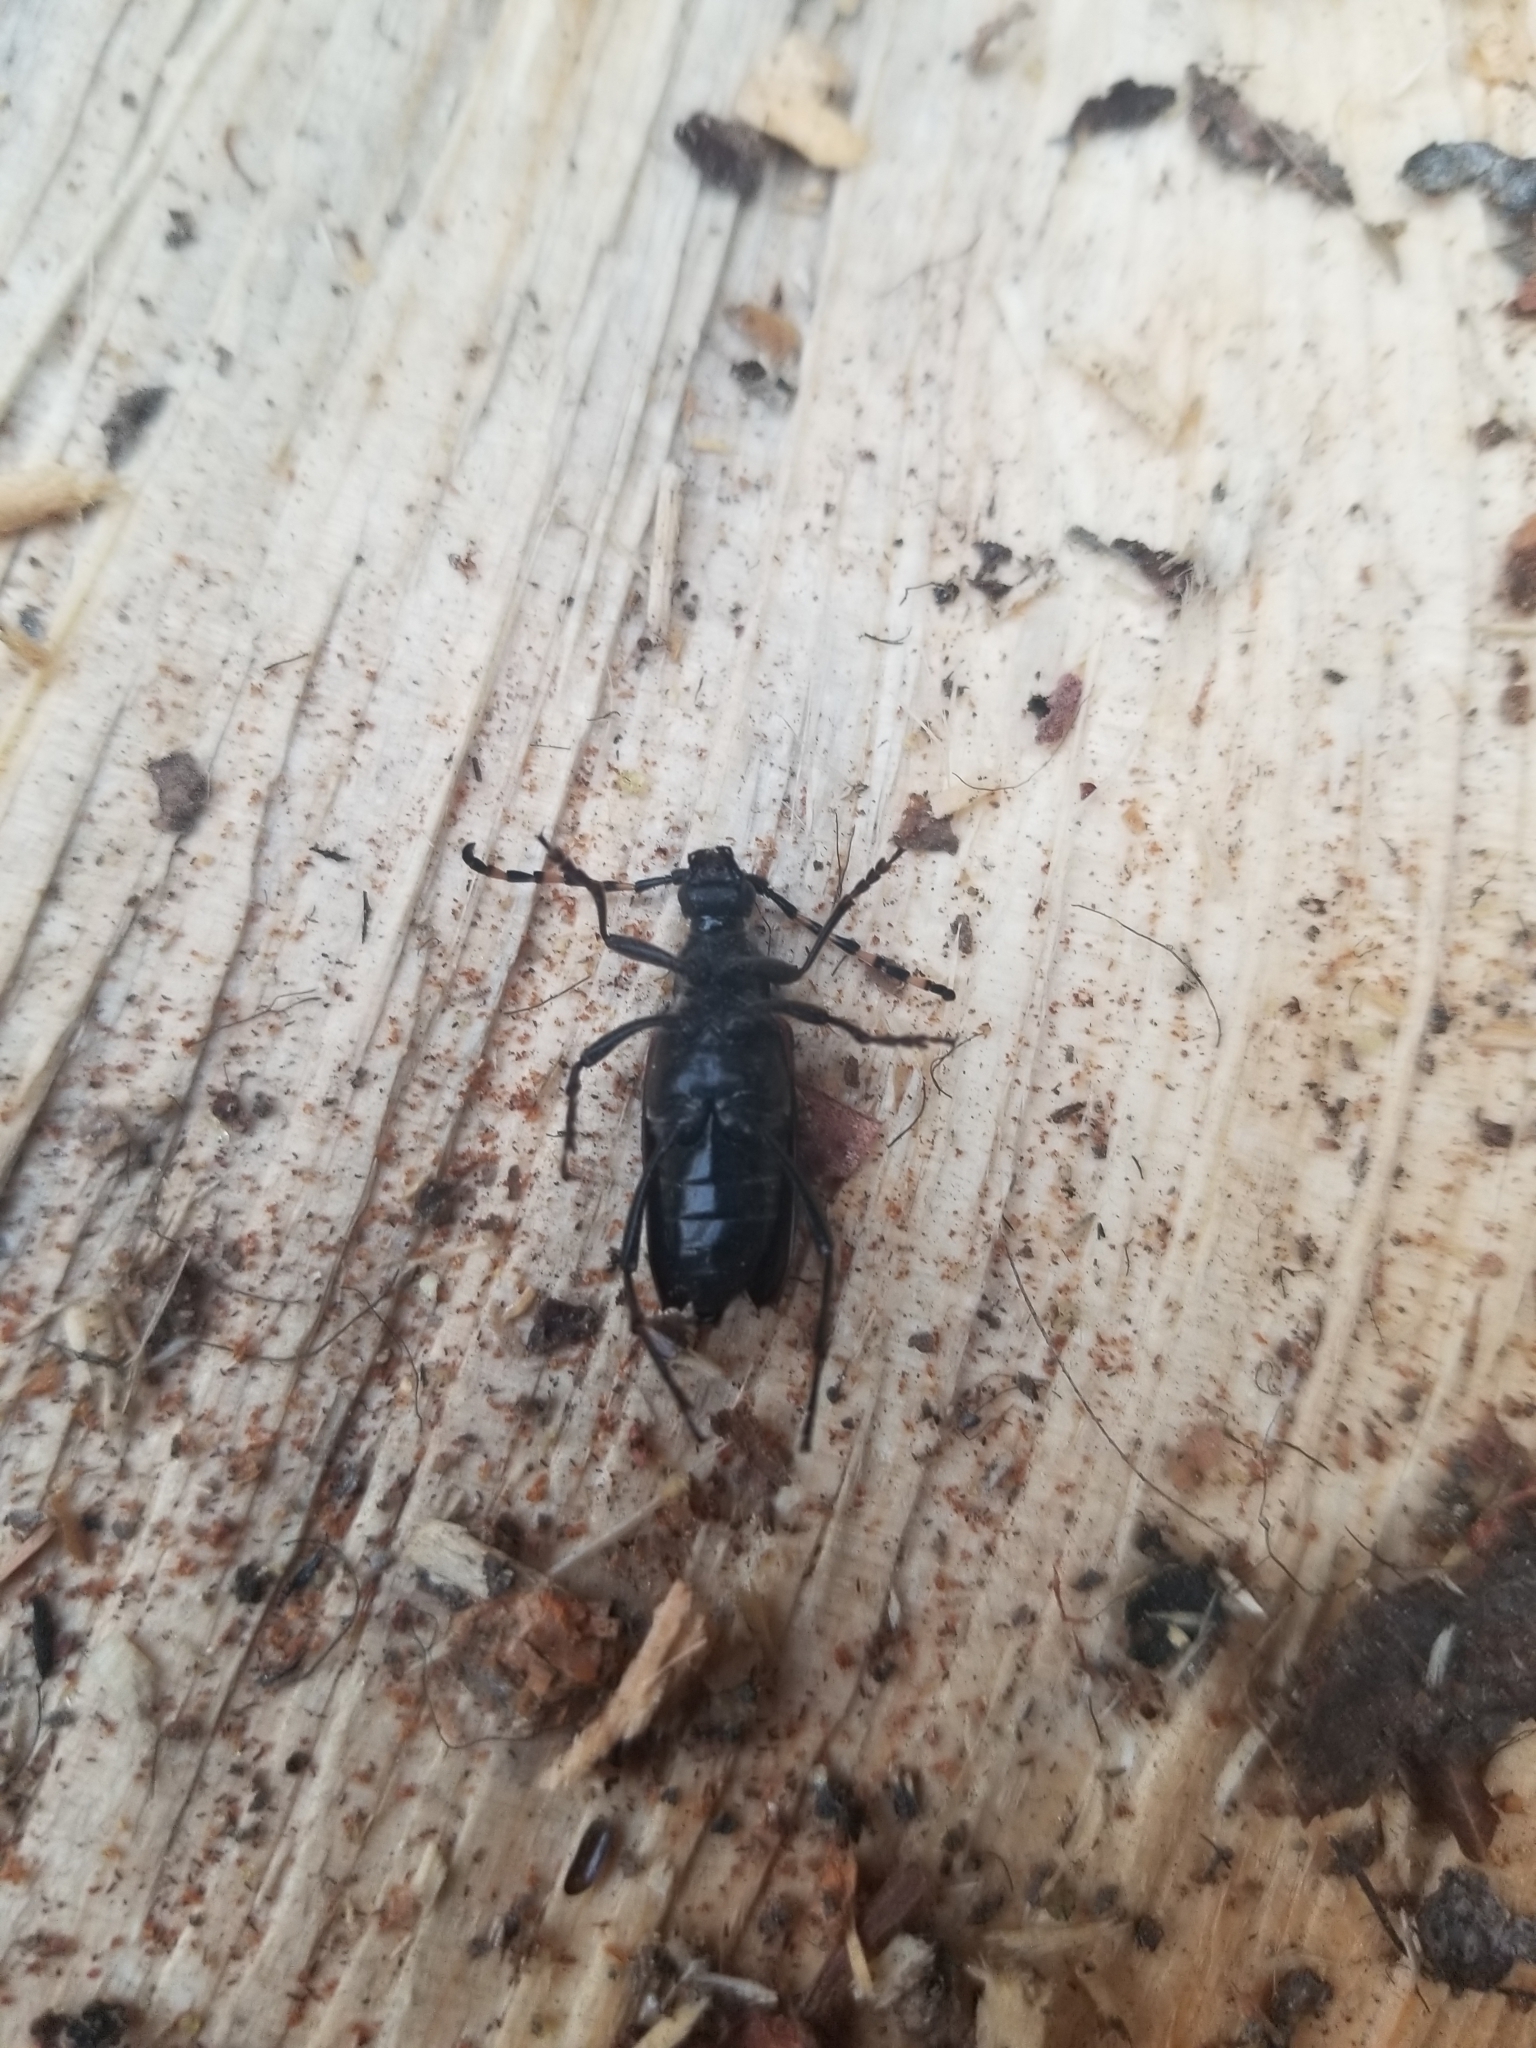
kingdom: Animalia
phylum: Arthropoda
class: Insecta
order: Coleoptera
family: Cerambycidae
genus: Stictoleptura
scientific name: Stictoleptura canadensis
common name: Red-shouldered pine borer
